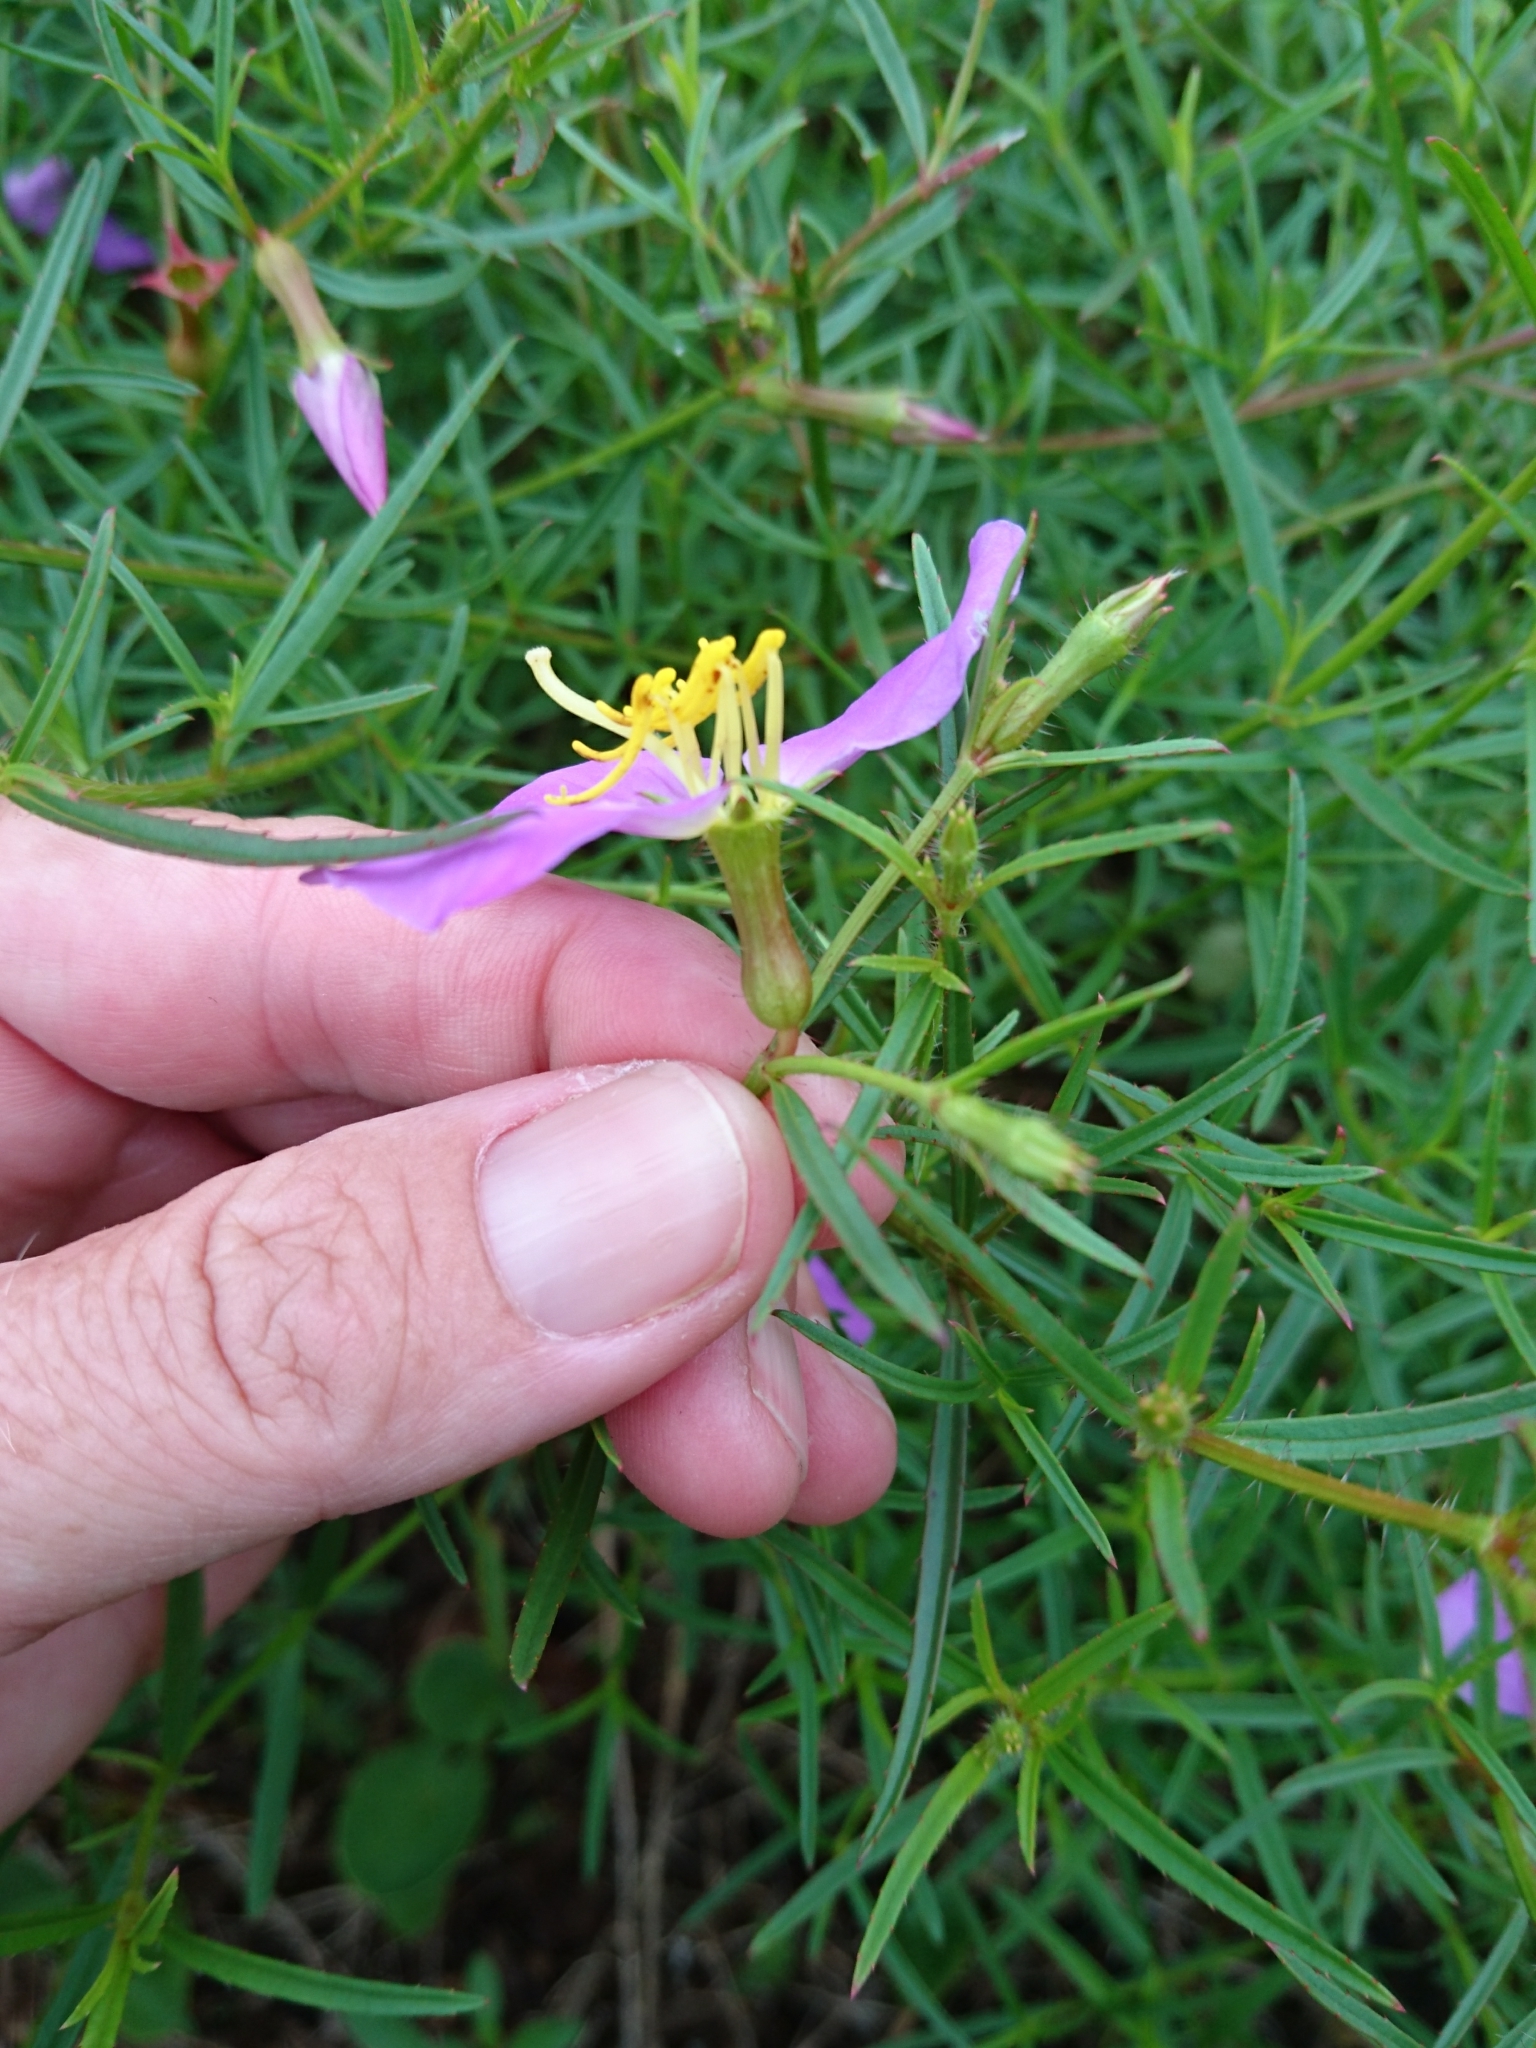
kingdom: Plantae
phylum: Tracheophyta
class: Magnoliopsida
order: Myrtales
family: Melastomataceae
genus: Rhexia
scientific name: Rhexia mariana
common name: Dull meadow-pitcher
